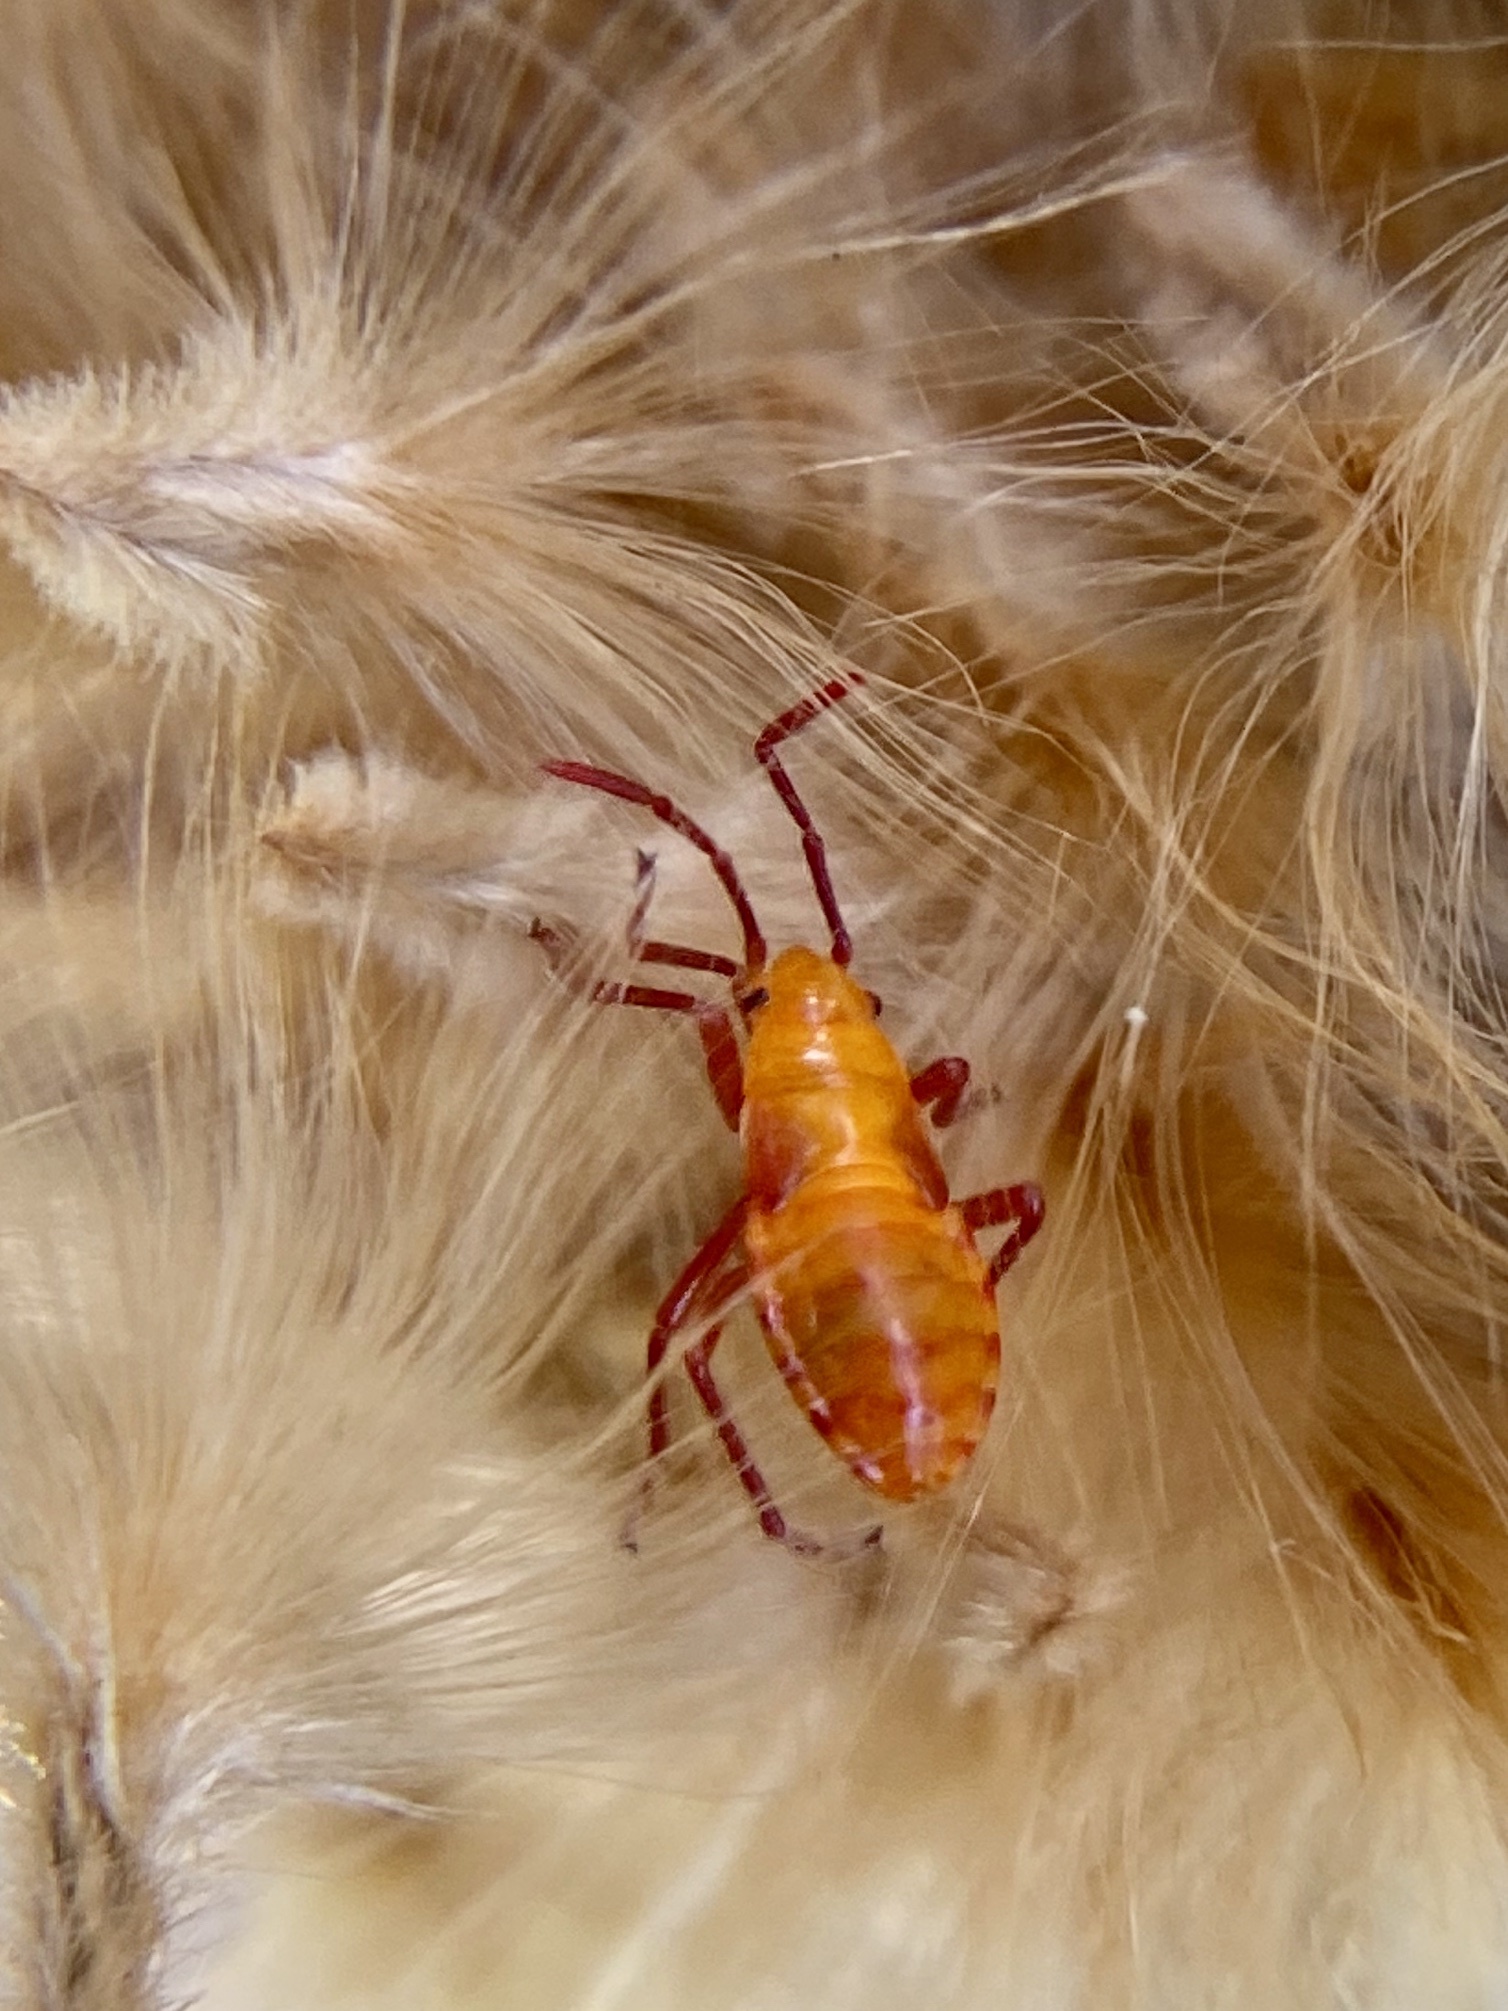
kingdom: Animalia
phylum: Arthropoda
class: Insecta
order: Hemiptera
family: Lygaeidae
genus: Oncopeltus
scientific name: Oncopeltus aulicus
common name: Lygaeid bug
